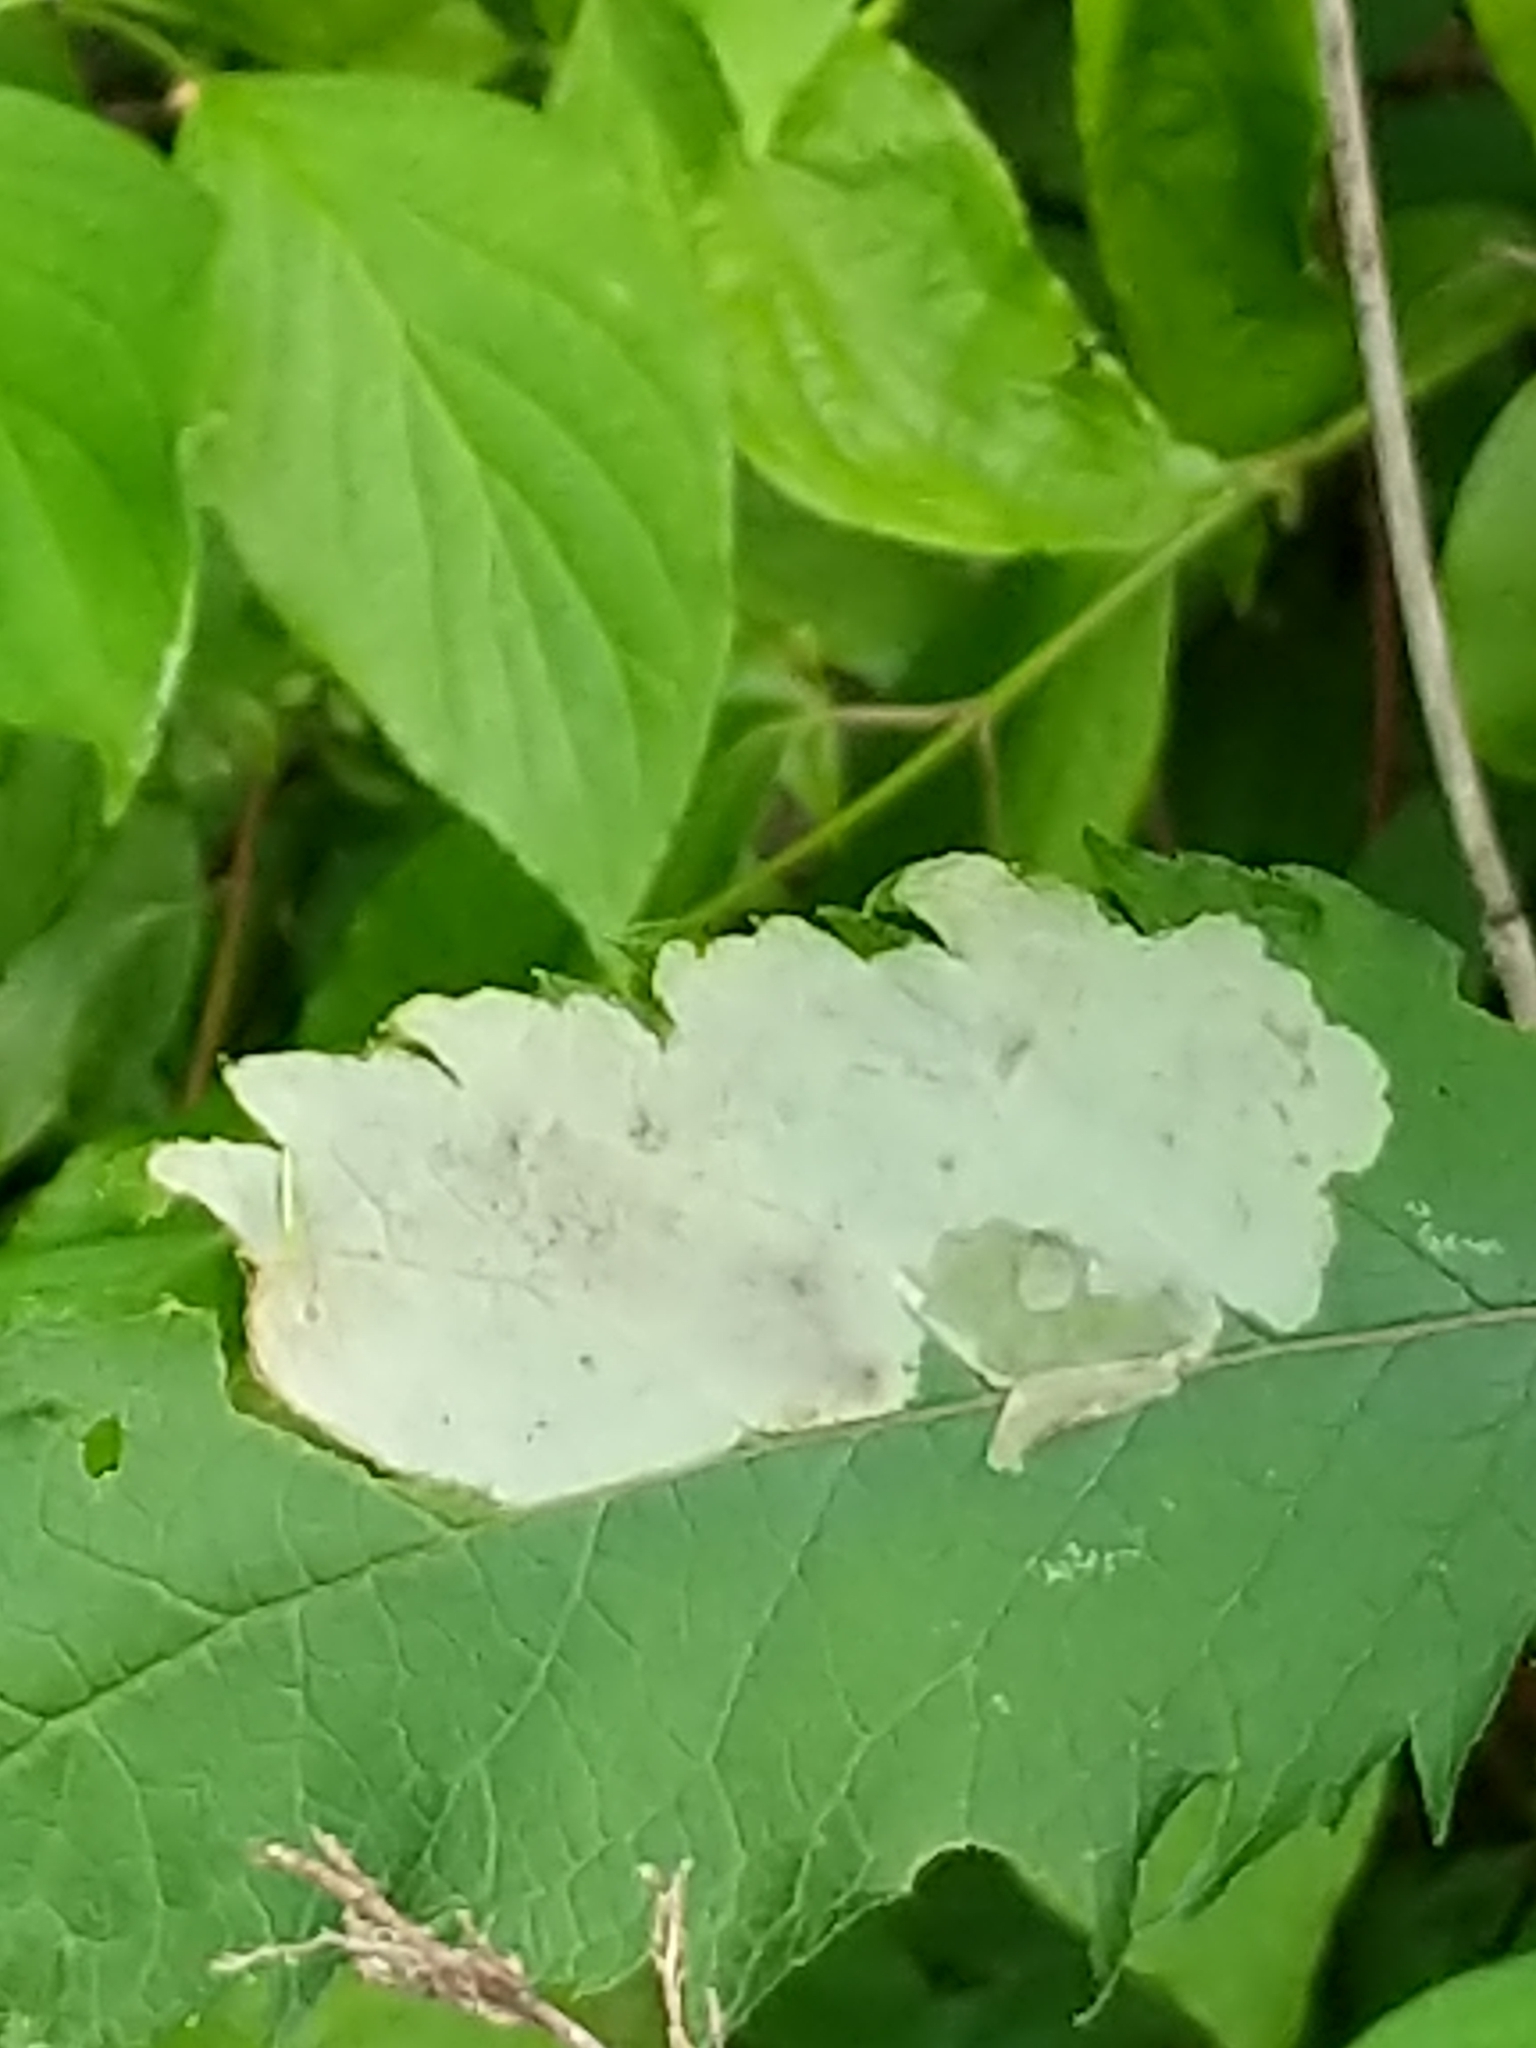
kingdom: Animalia
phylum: Arthropoda
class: Insecta
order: Diptera
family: Agromyzidae
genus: Calycomyza
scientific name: Calycomyza flavinotum
